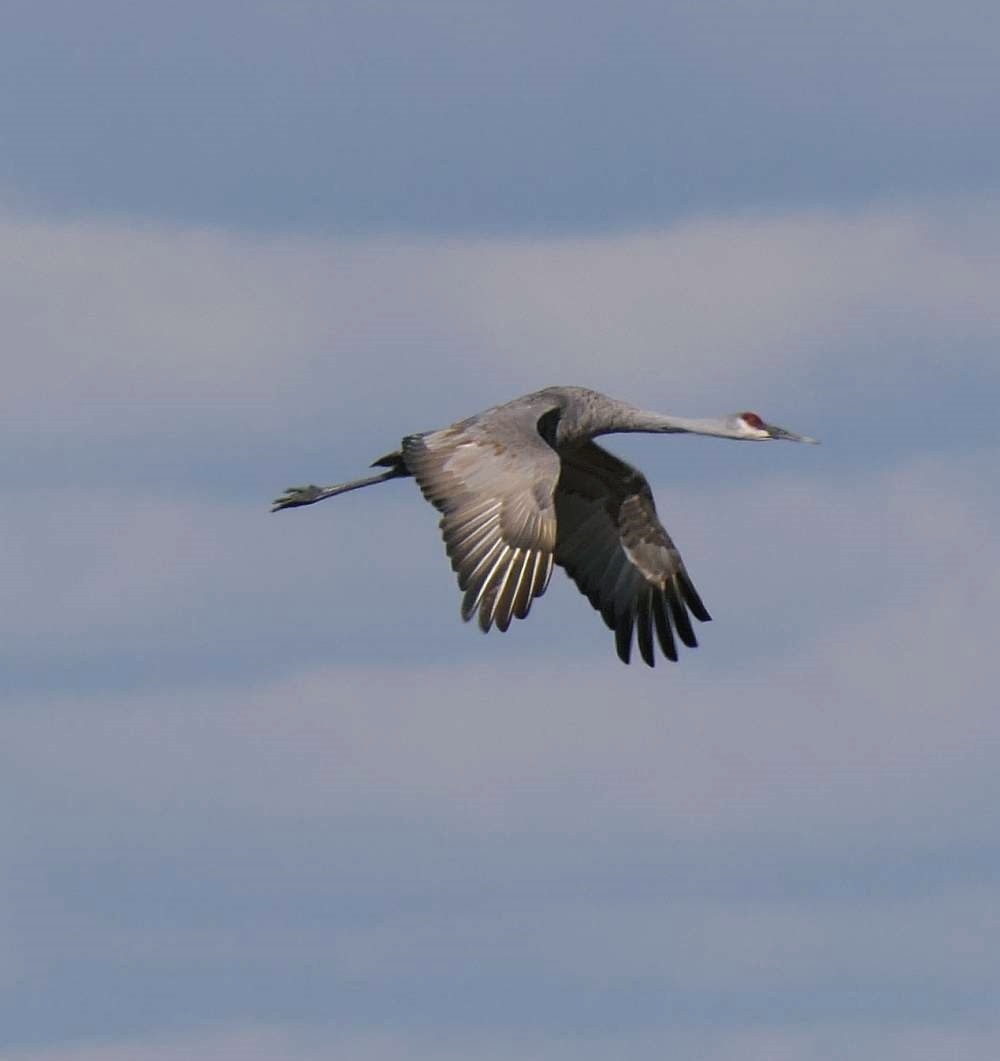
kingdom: Animalia
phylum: Chordata
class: Aves
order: Gruiformes
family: Gruidae
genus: Grus
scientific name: Grus canadensis
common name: Sandhill crane
